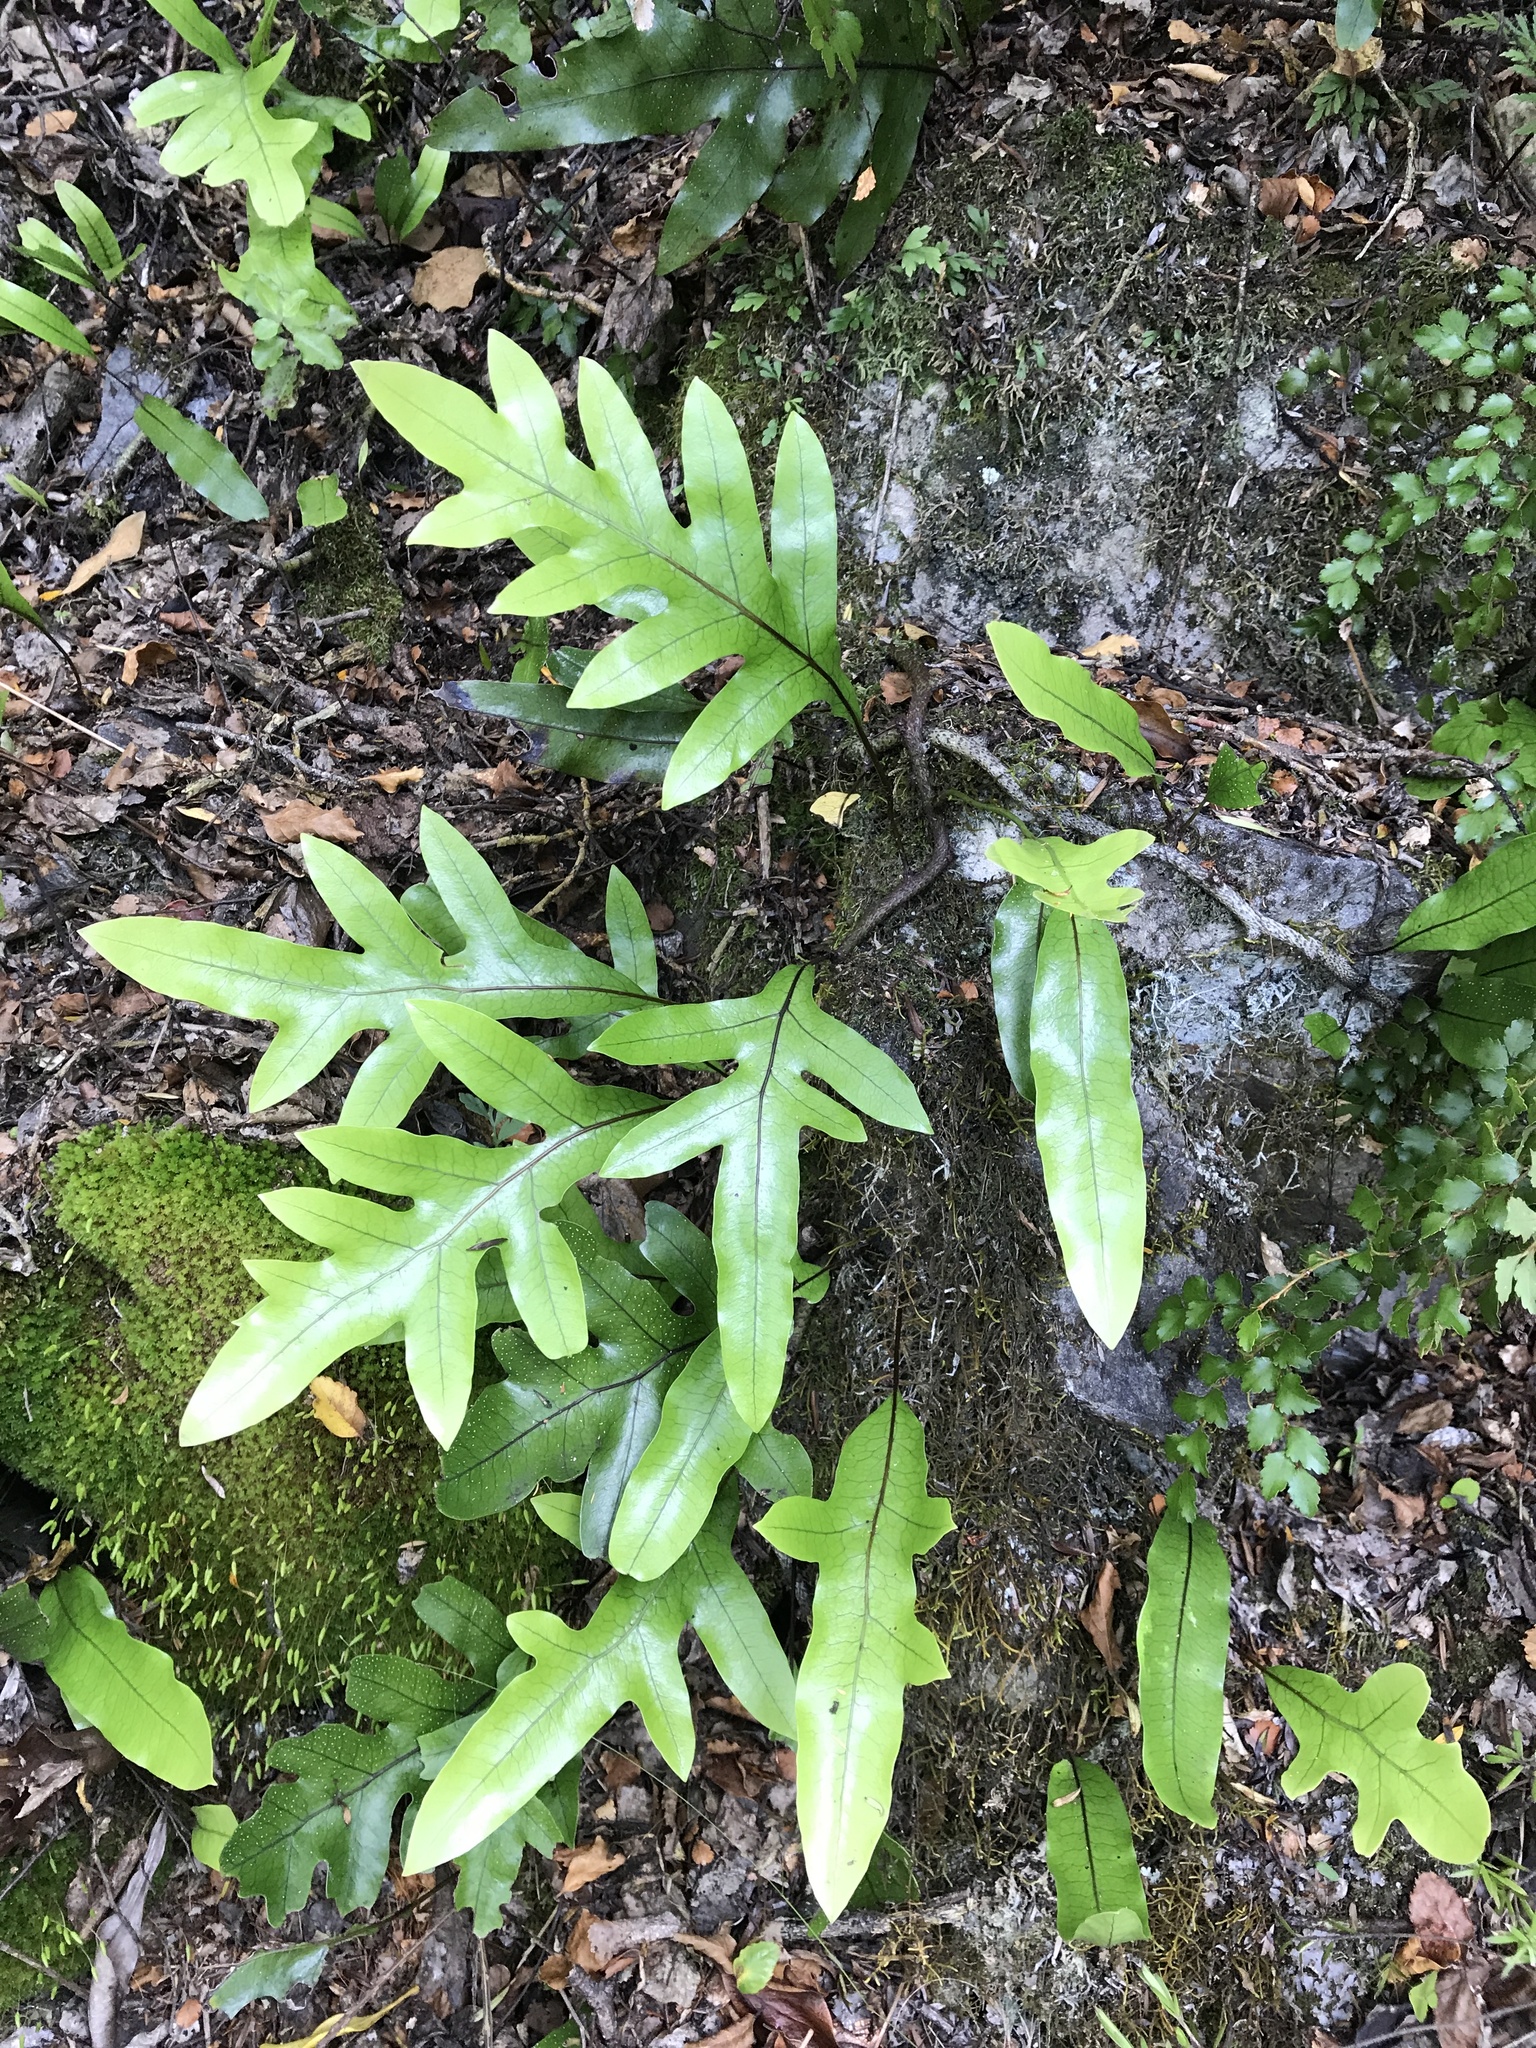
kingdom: Plantae
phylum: Tracheophyta
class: Polypodiopsida
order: Polypodiales
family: Polypodiaceae
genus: Lecanopteris
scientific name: Lecanopteris pustulata
